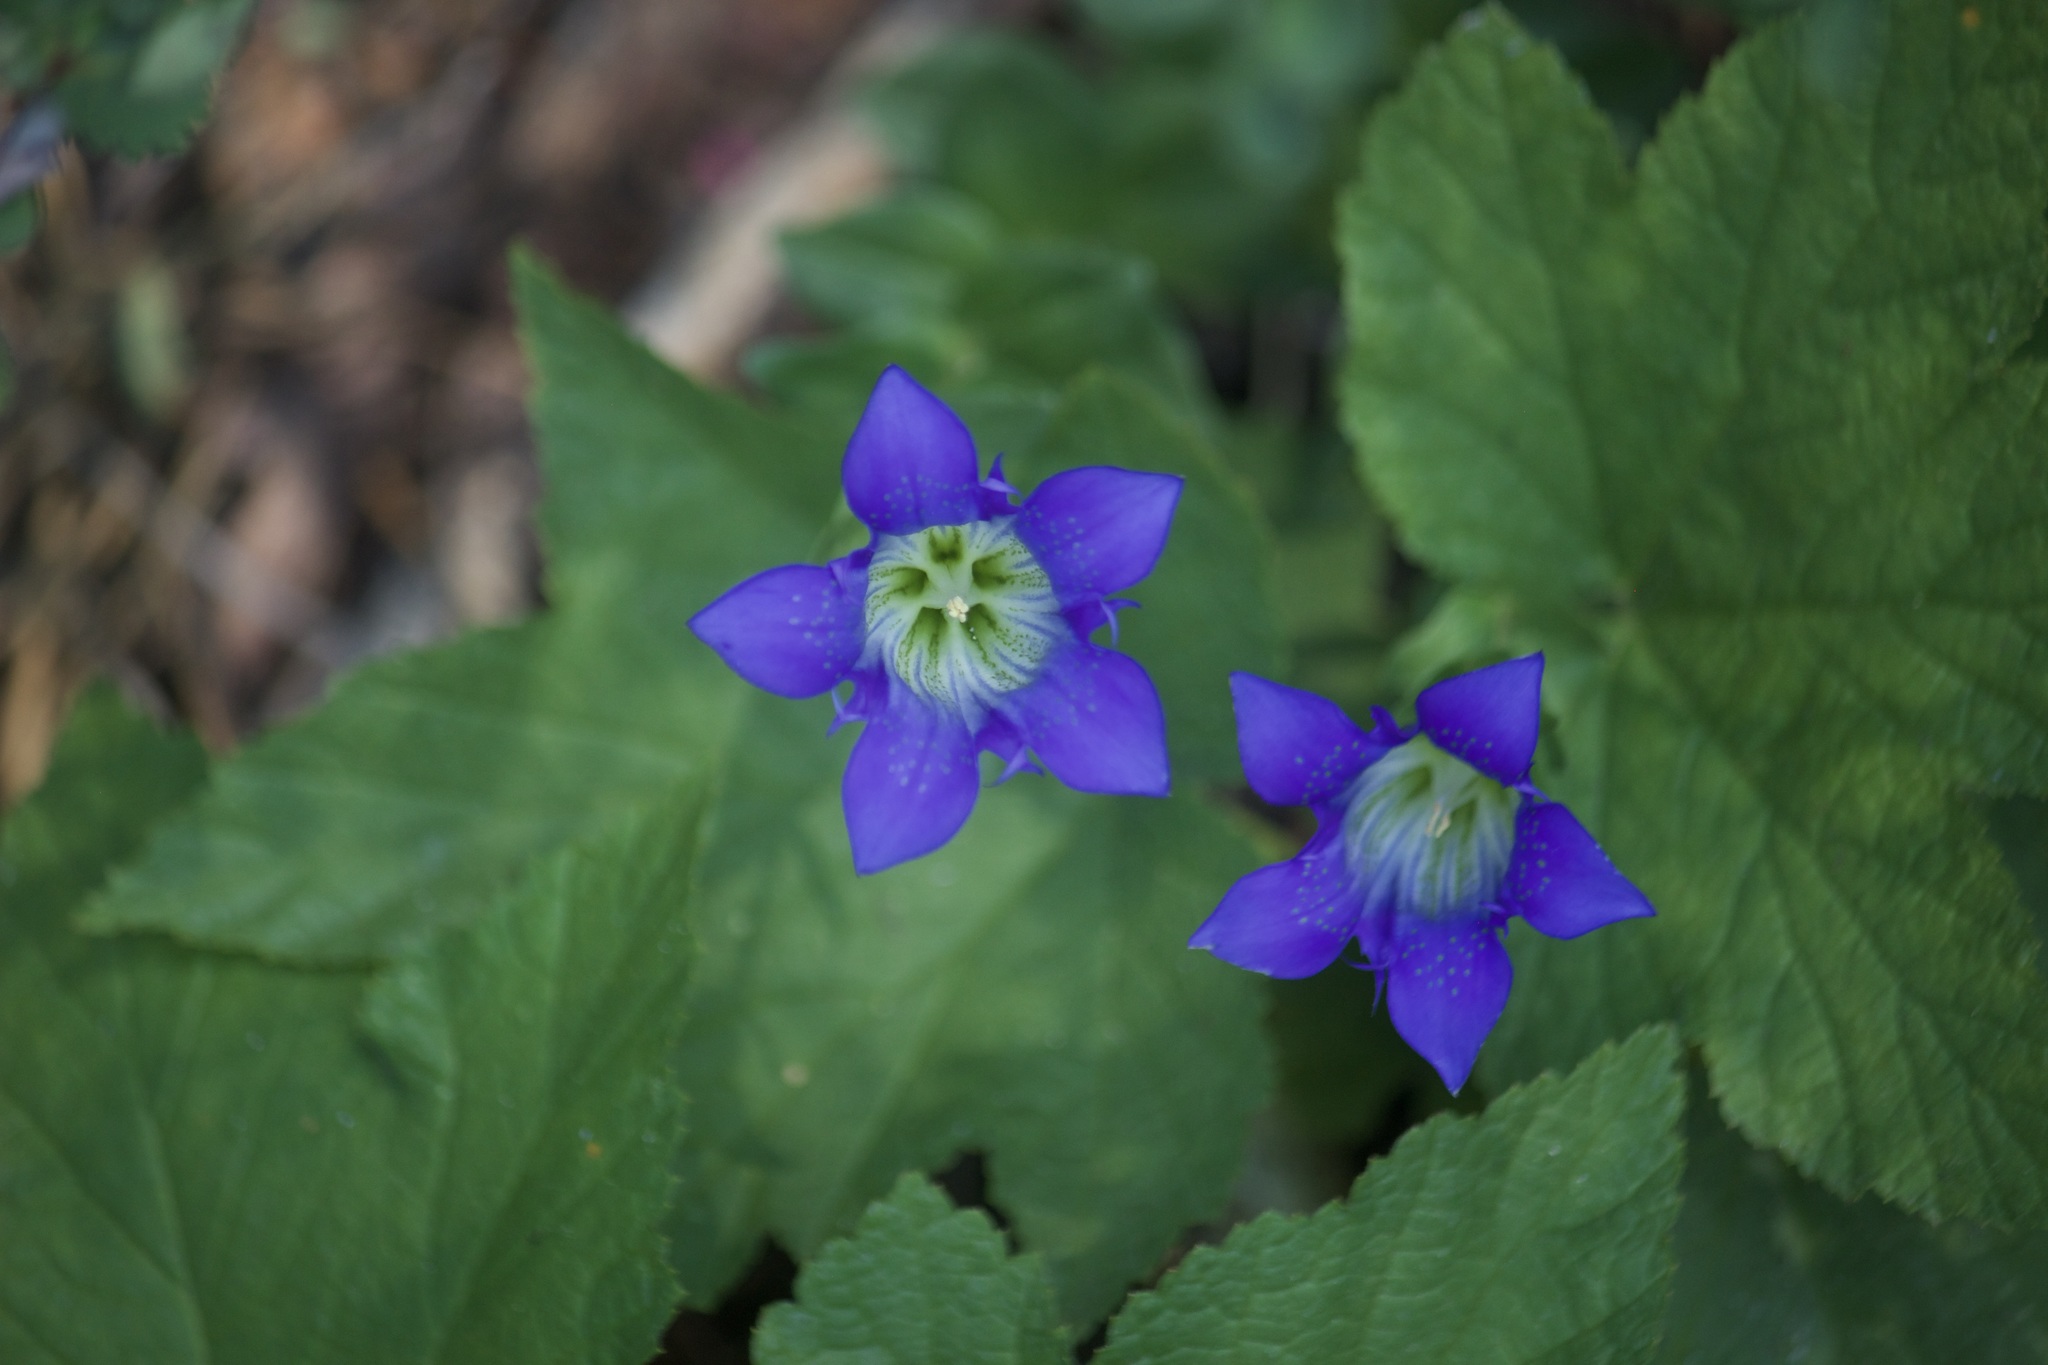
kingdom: Plantae
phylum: Tracheophyta
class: Magnoliopsida
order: Gentianales
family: Gentianaceae
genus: Gentiana
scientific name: Gentiana calycosa
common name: Rainier pleated gentian
